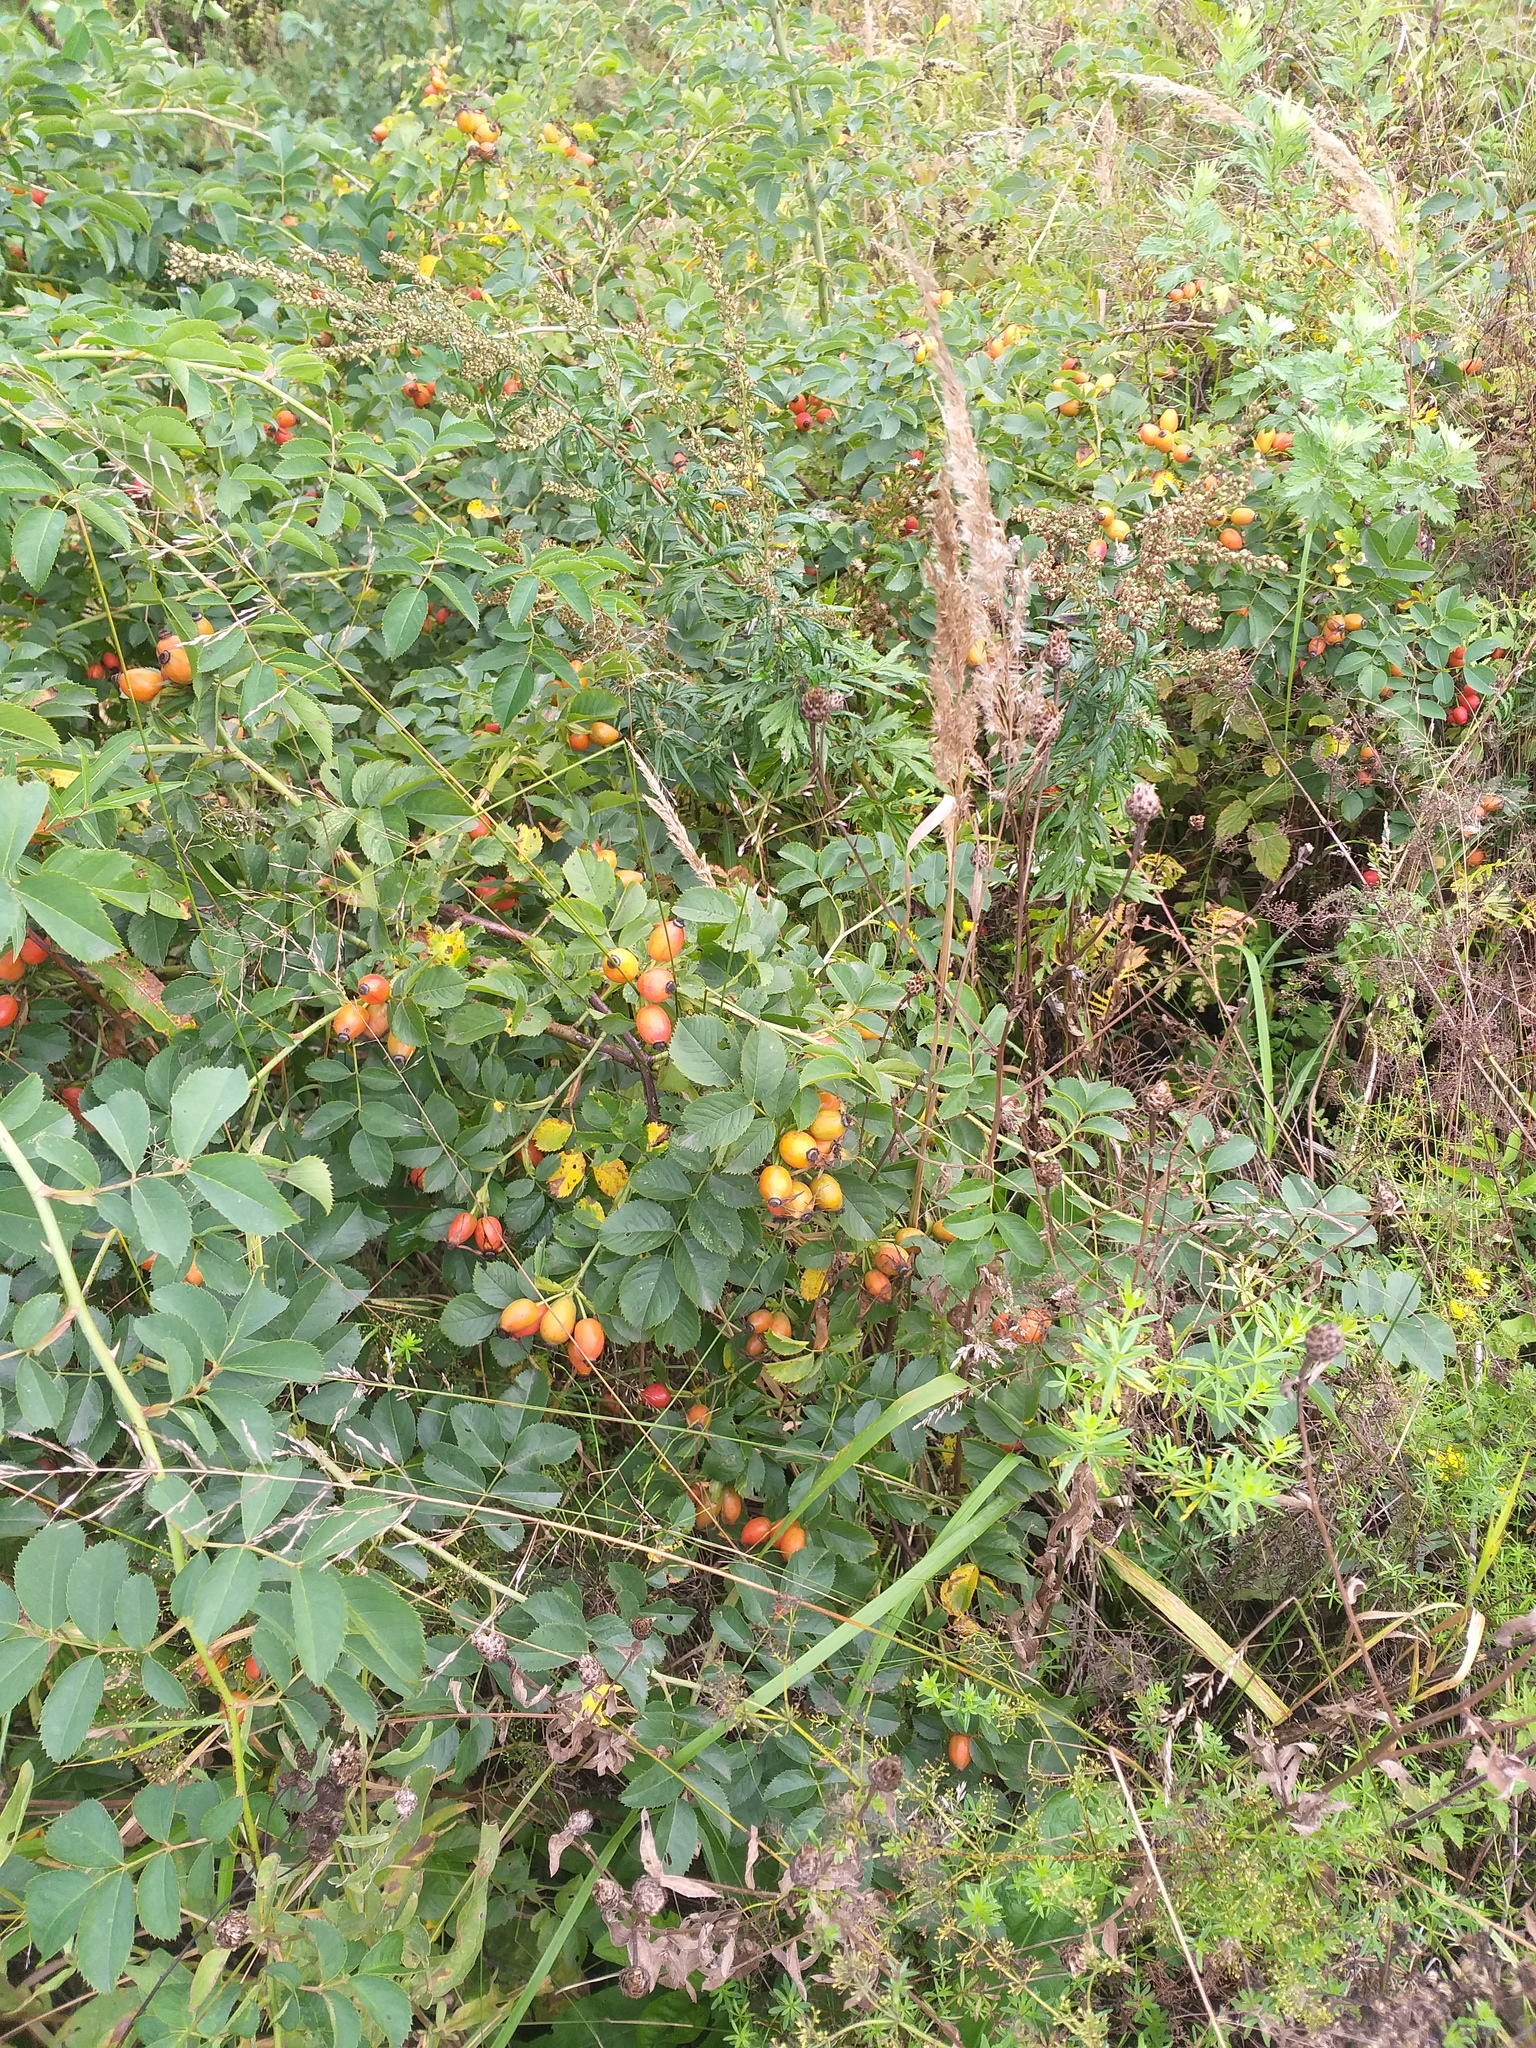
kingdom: Plantae
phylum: Tracheophyta
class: Magnoliopsida
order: Rosales
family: Rosaceae
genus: Rosa
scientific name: Rosa dumalis
